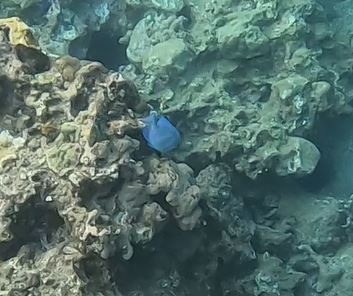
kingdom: Animalia
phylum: Chordata
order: Perciformes
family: Acanthuridae
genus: Acanthurus
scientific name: Acanthurus coeruleus
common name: Blue tang
